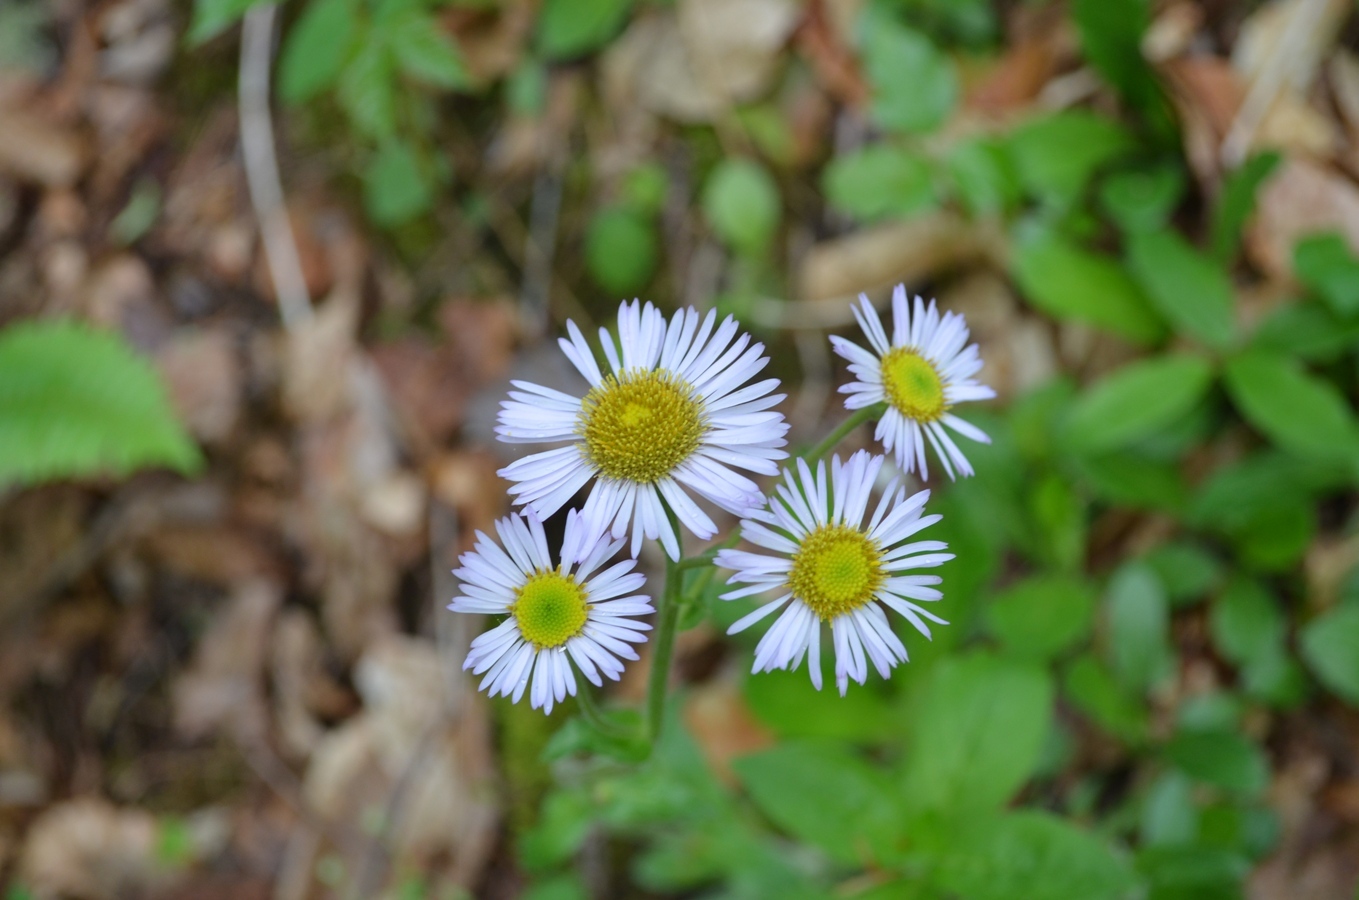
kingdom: Plantae
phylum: Tracheophyta
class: Magnoliopsida
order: Asterales
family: Asteraceae
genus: Erigeron
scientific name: Erigeron pulchellus
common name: Hairy fleabane
